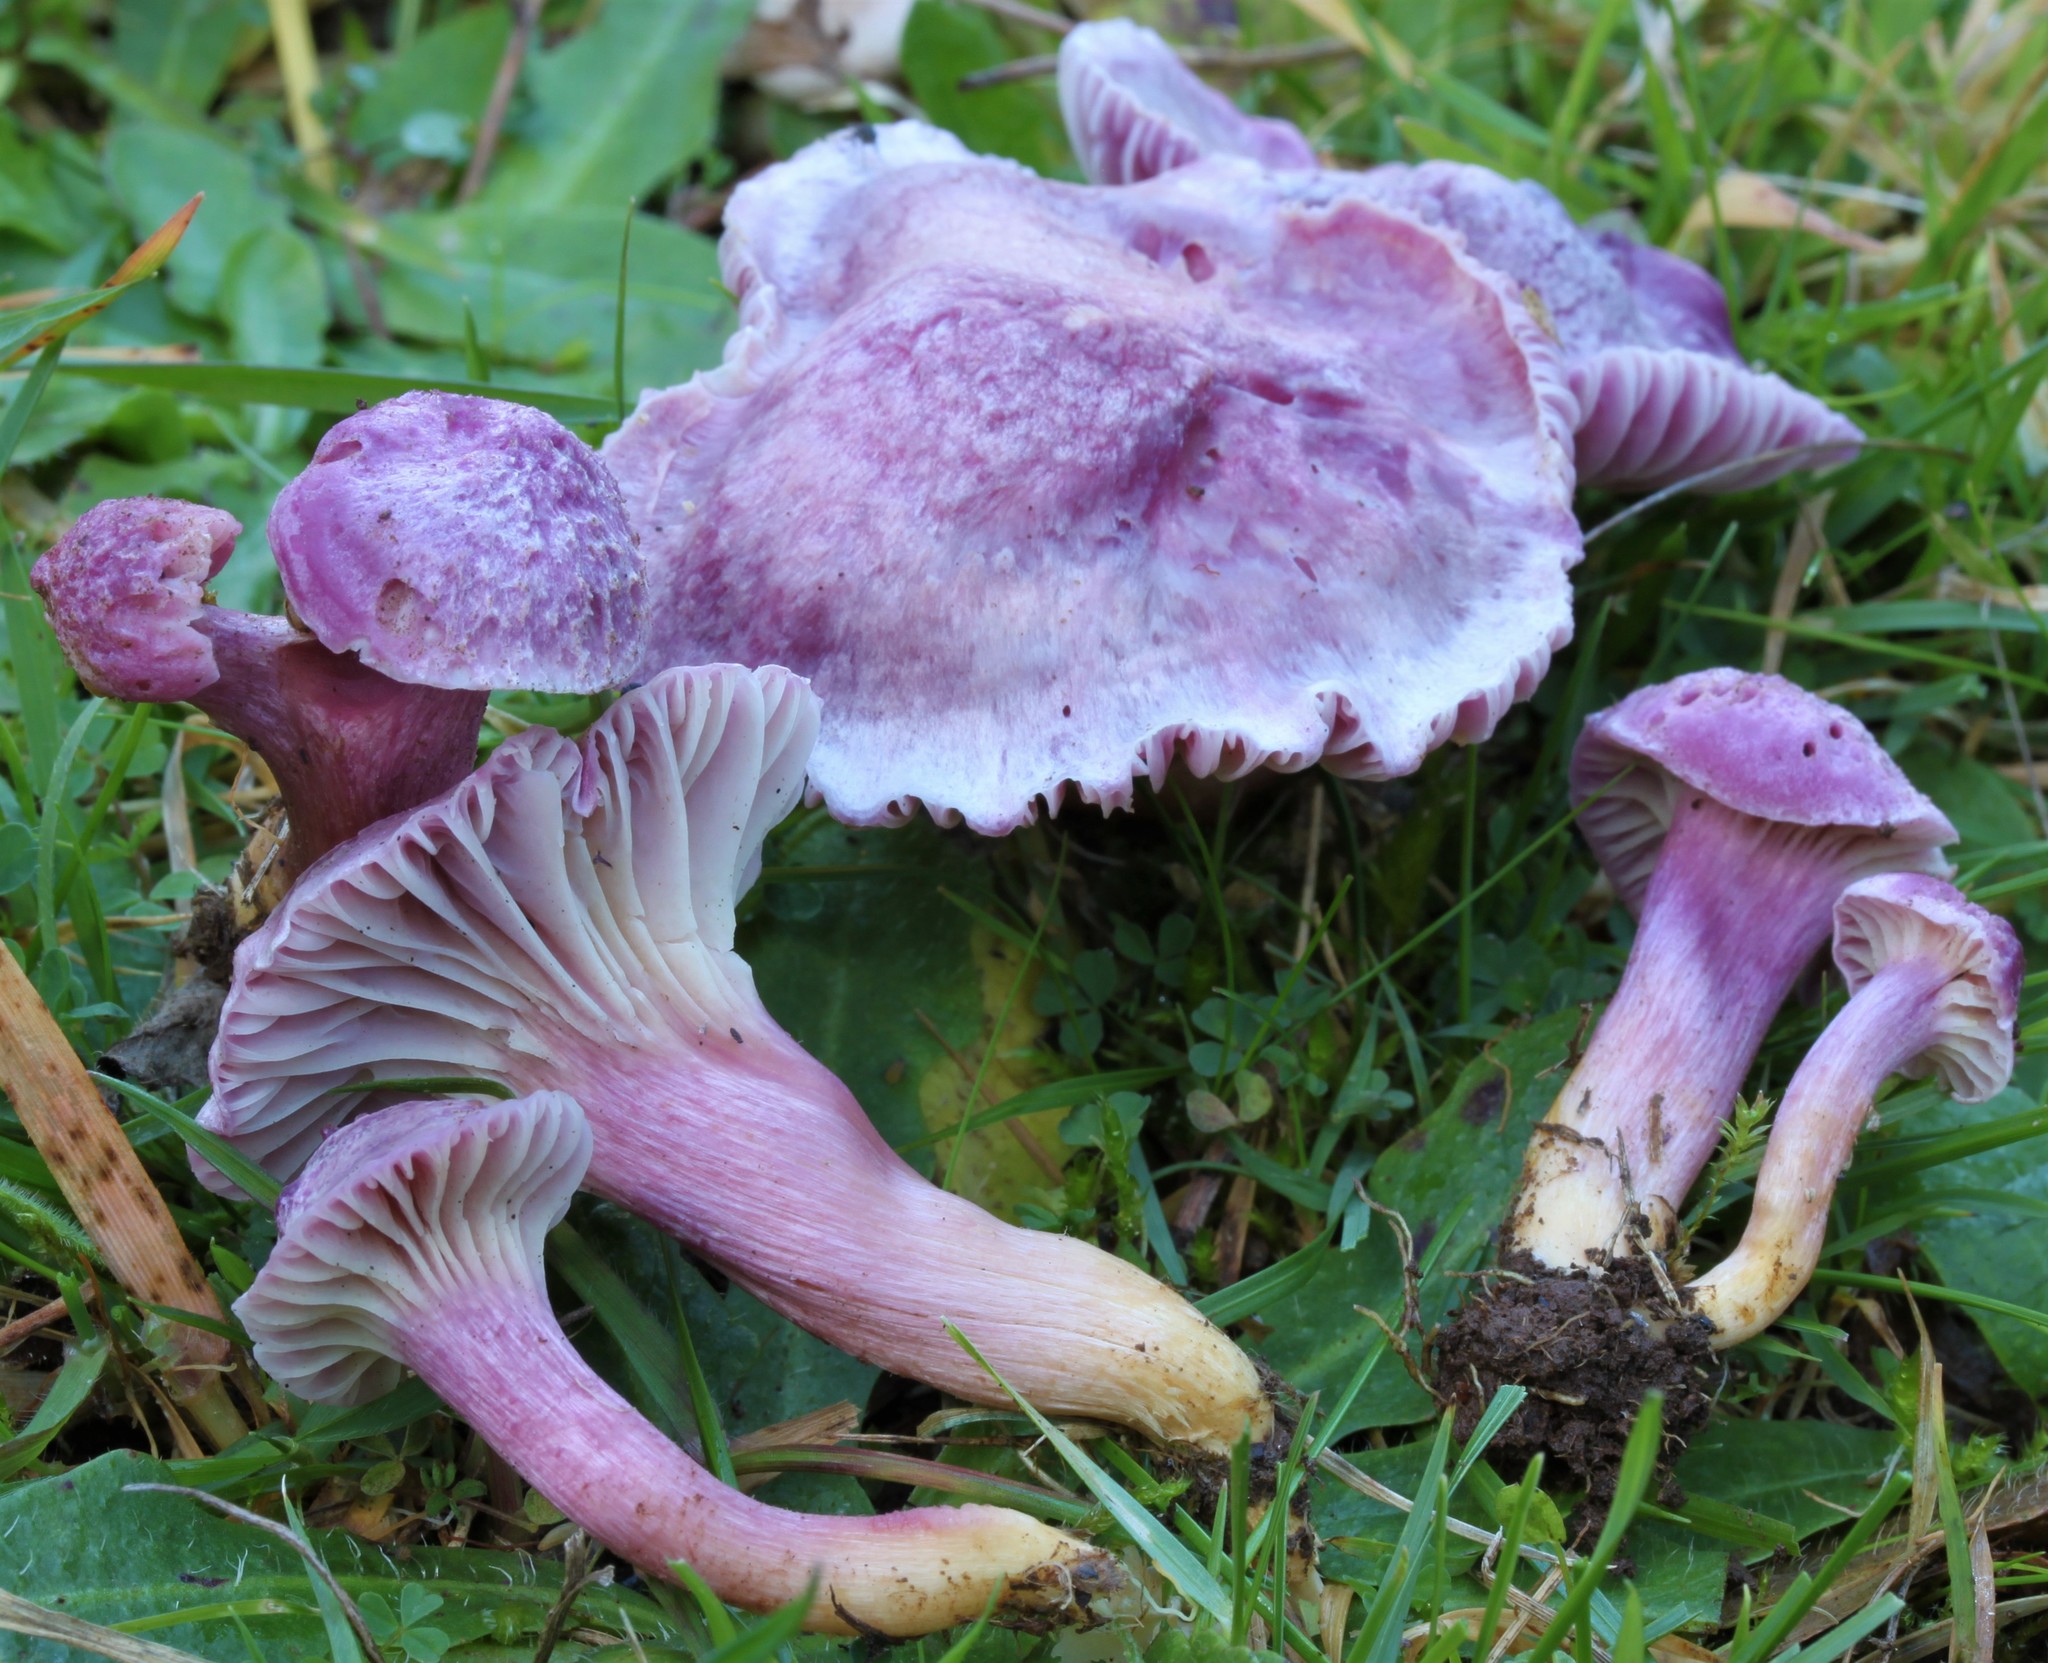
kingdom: Fungi
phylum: Basidiomycota
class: Agaricomycetes
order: Agaricales
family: Hygrophoraceae
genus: Cuphophyllus
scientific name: Cuphophyllus
